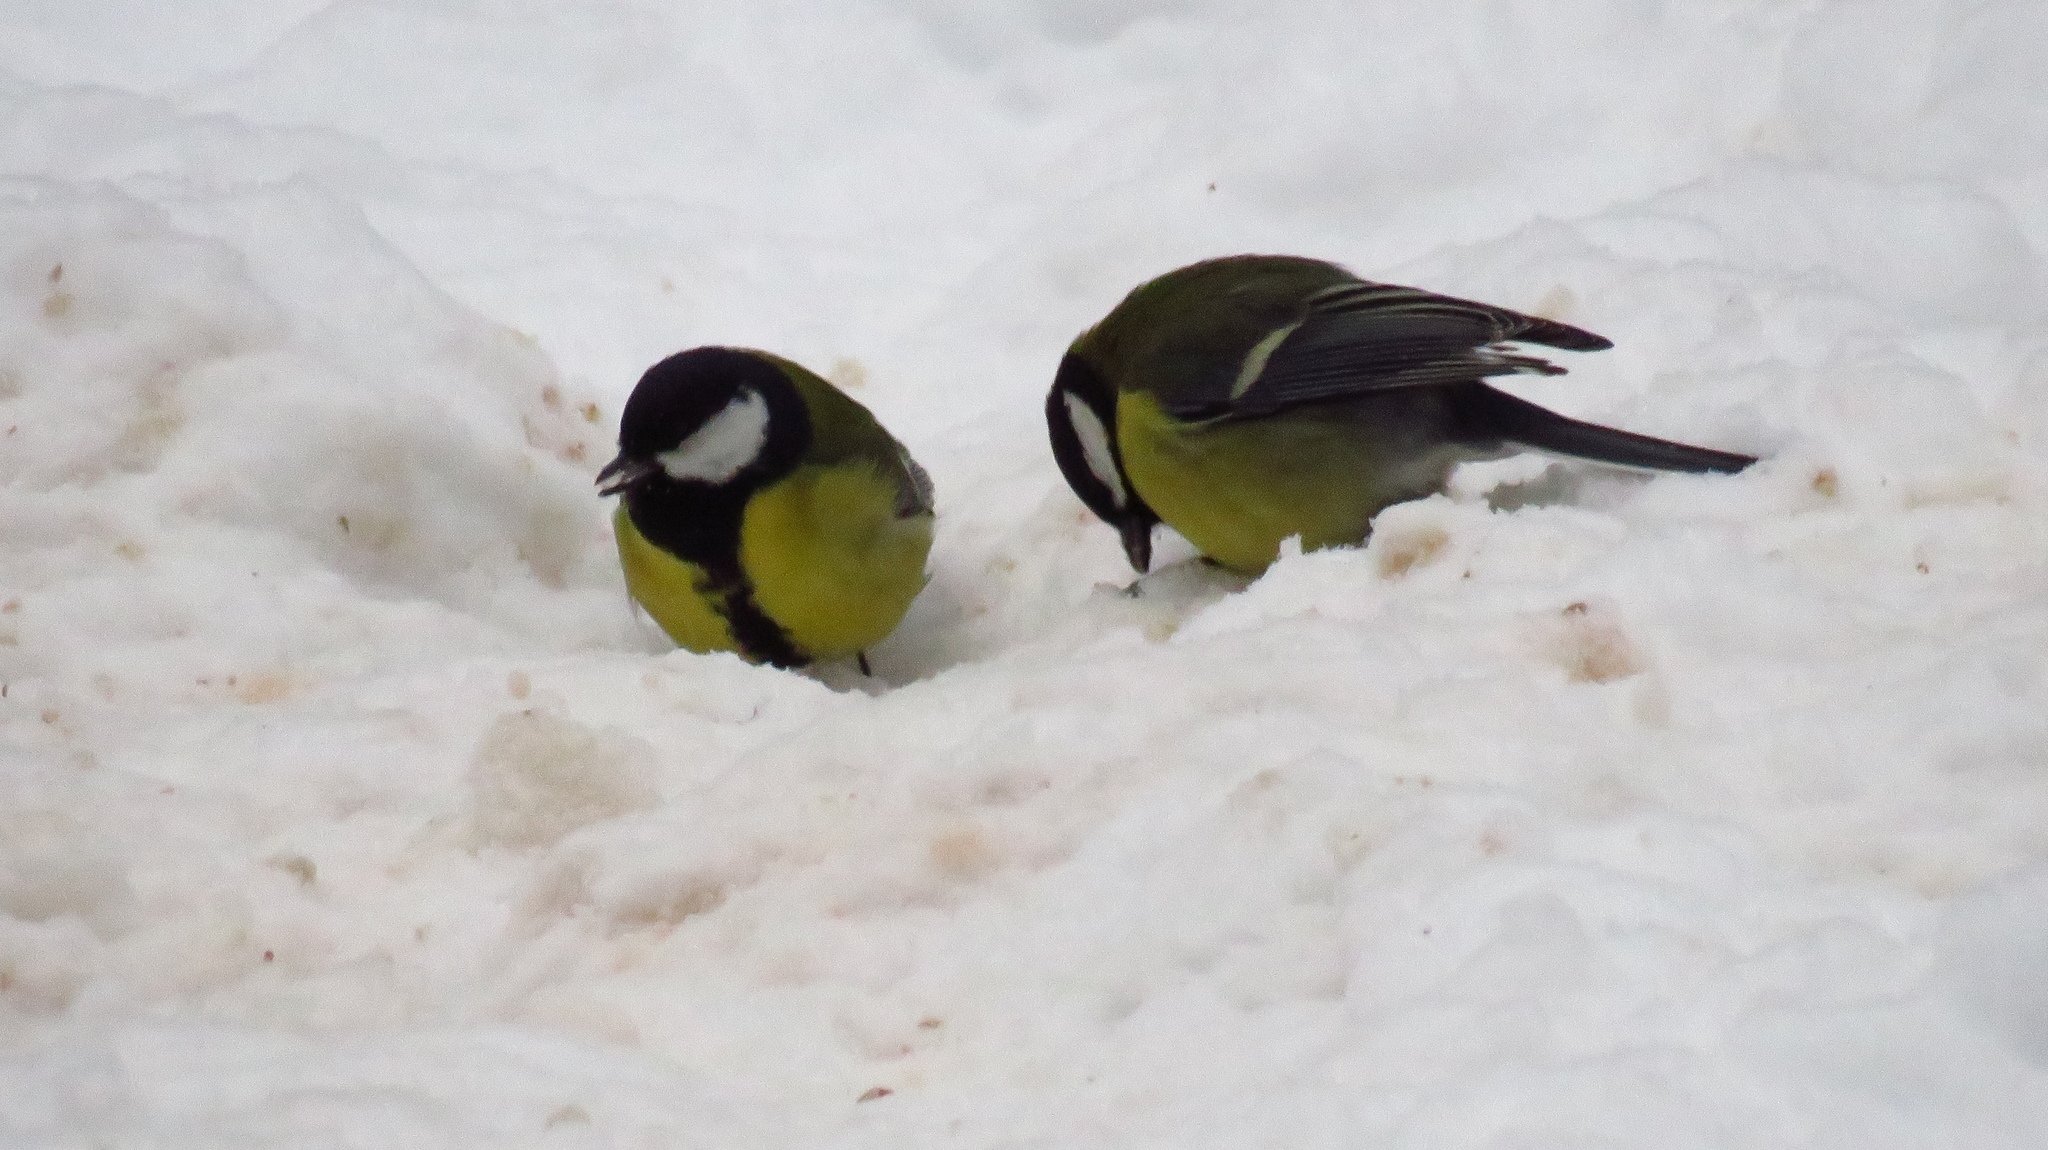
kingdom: Animalia
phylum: Chordata
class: Aves
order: Passeriformes
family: Paridae
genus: Parus
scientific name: Parus major
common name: Great tit
